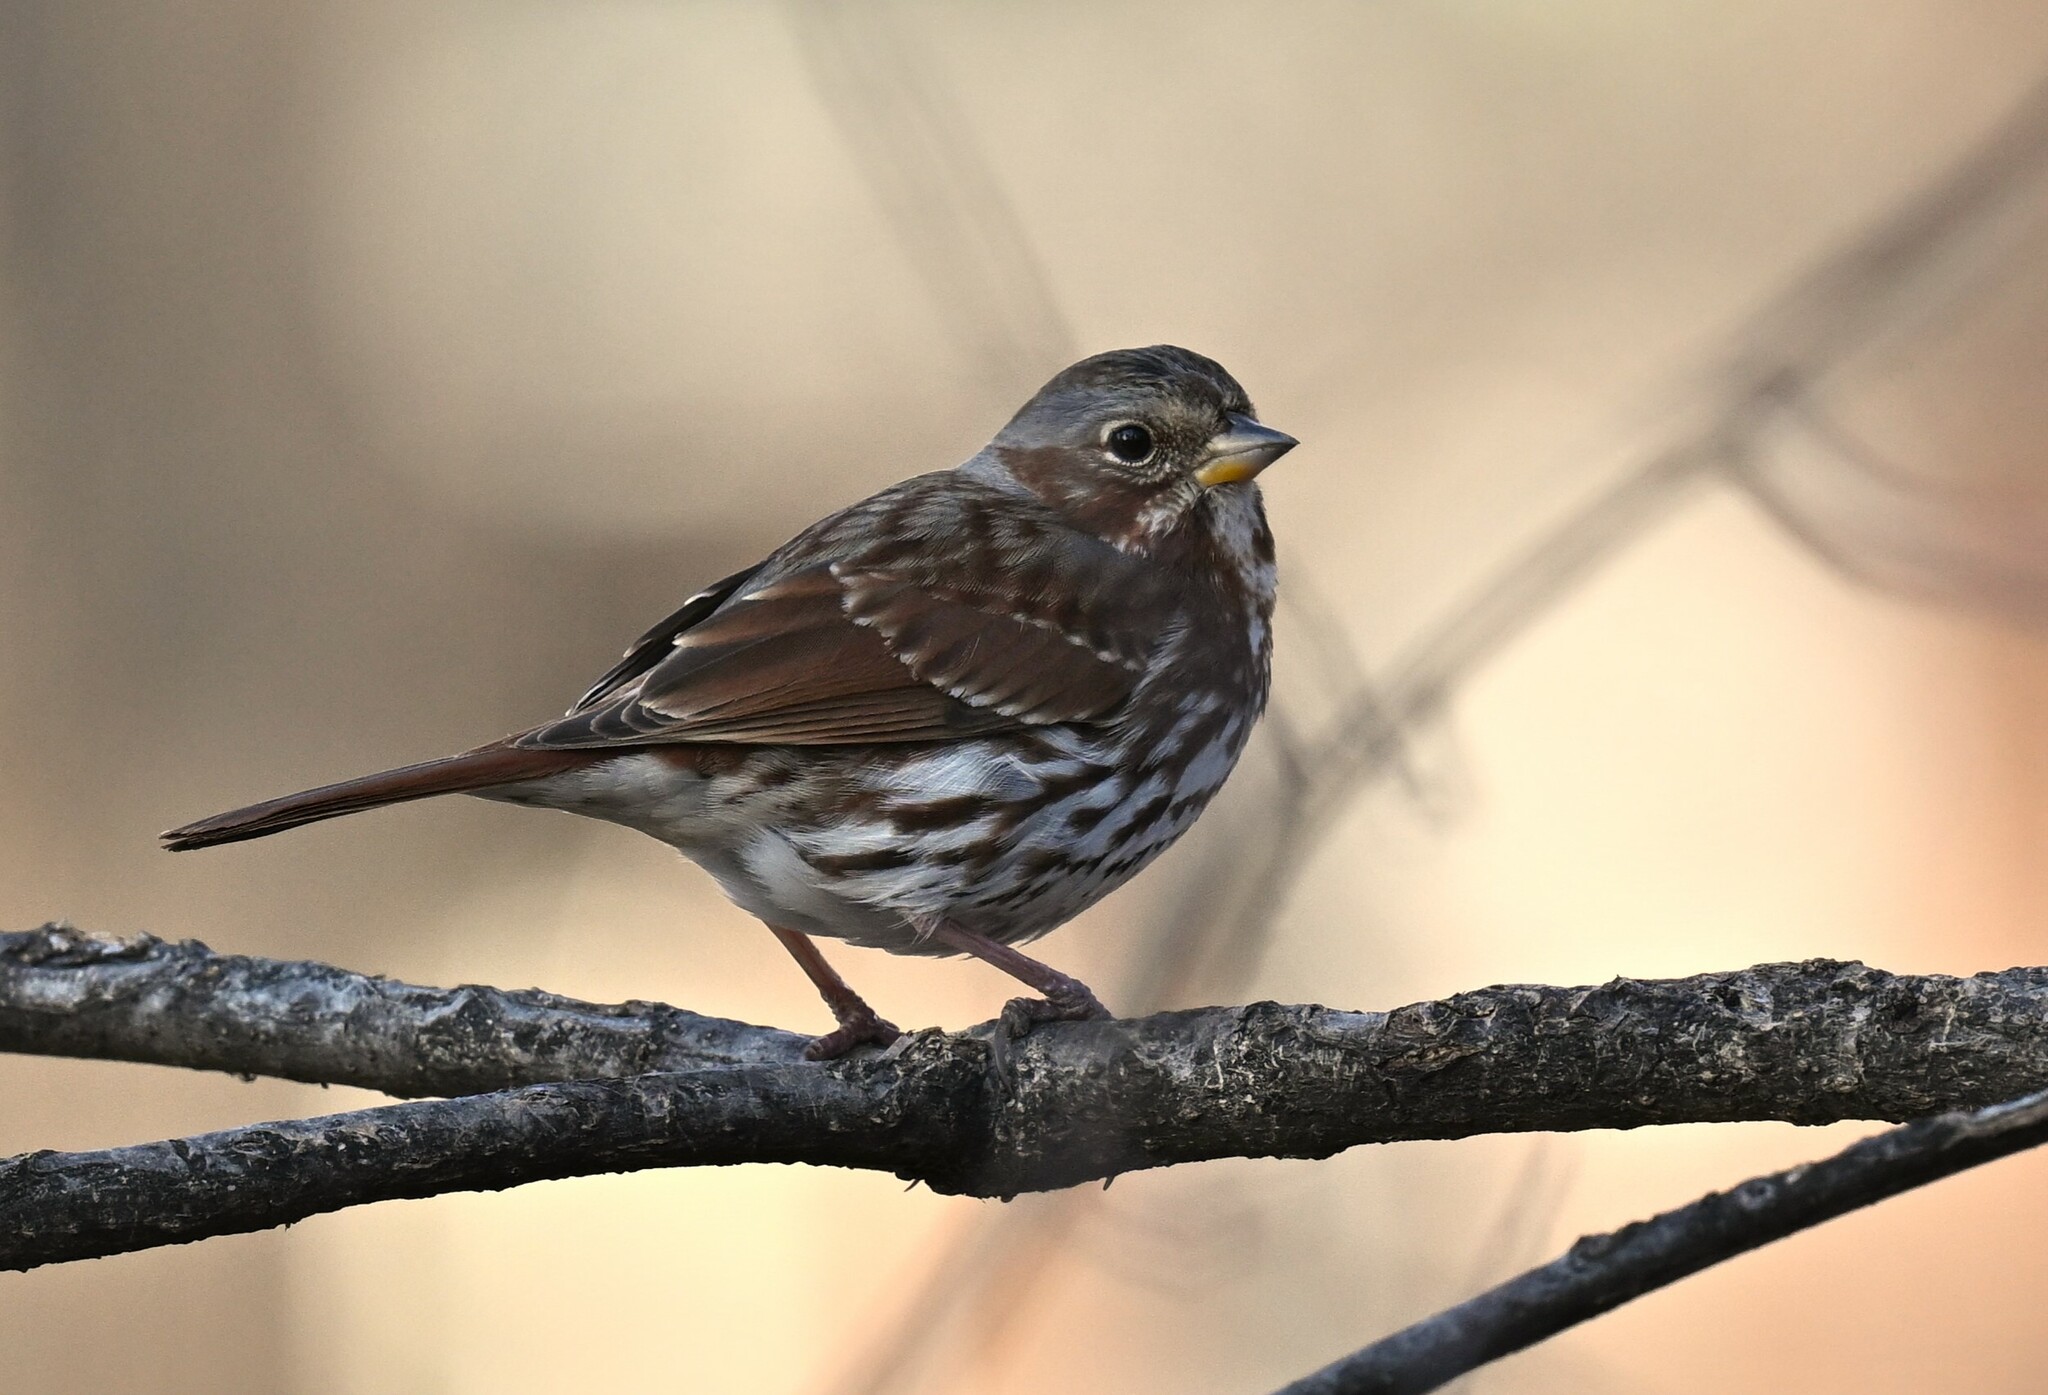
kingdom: Animalia
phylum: Chordata
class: Aves
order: Passeriformes
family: Passerellidae
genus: Passerella
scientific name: Passerella iliaca
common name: Fox sparrow
